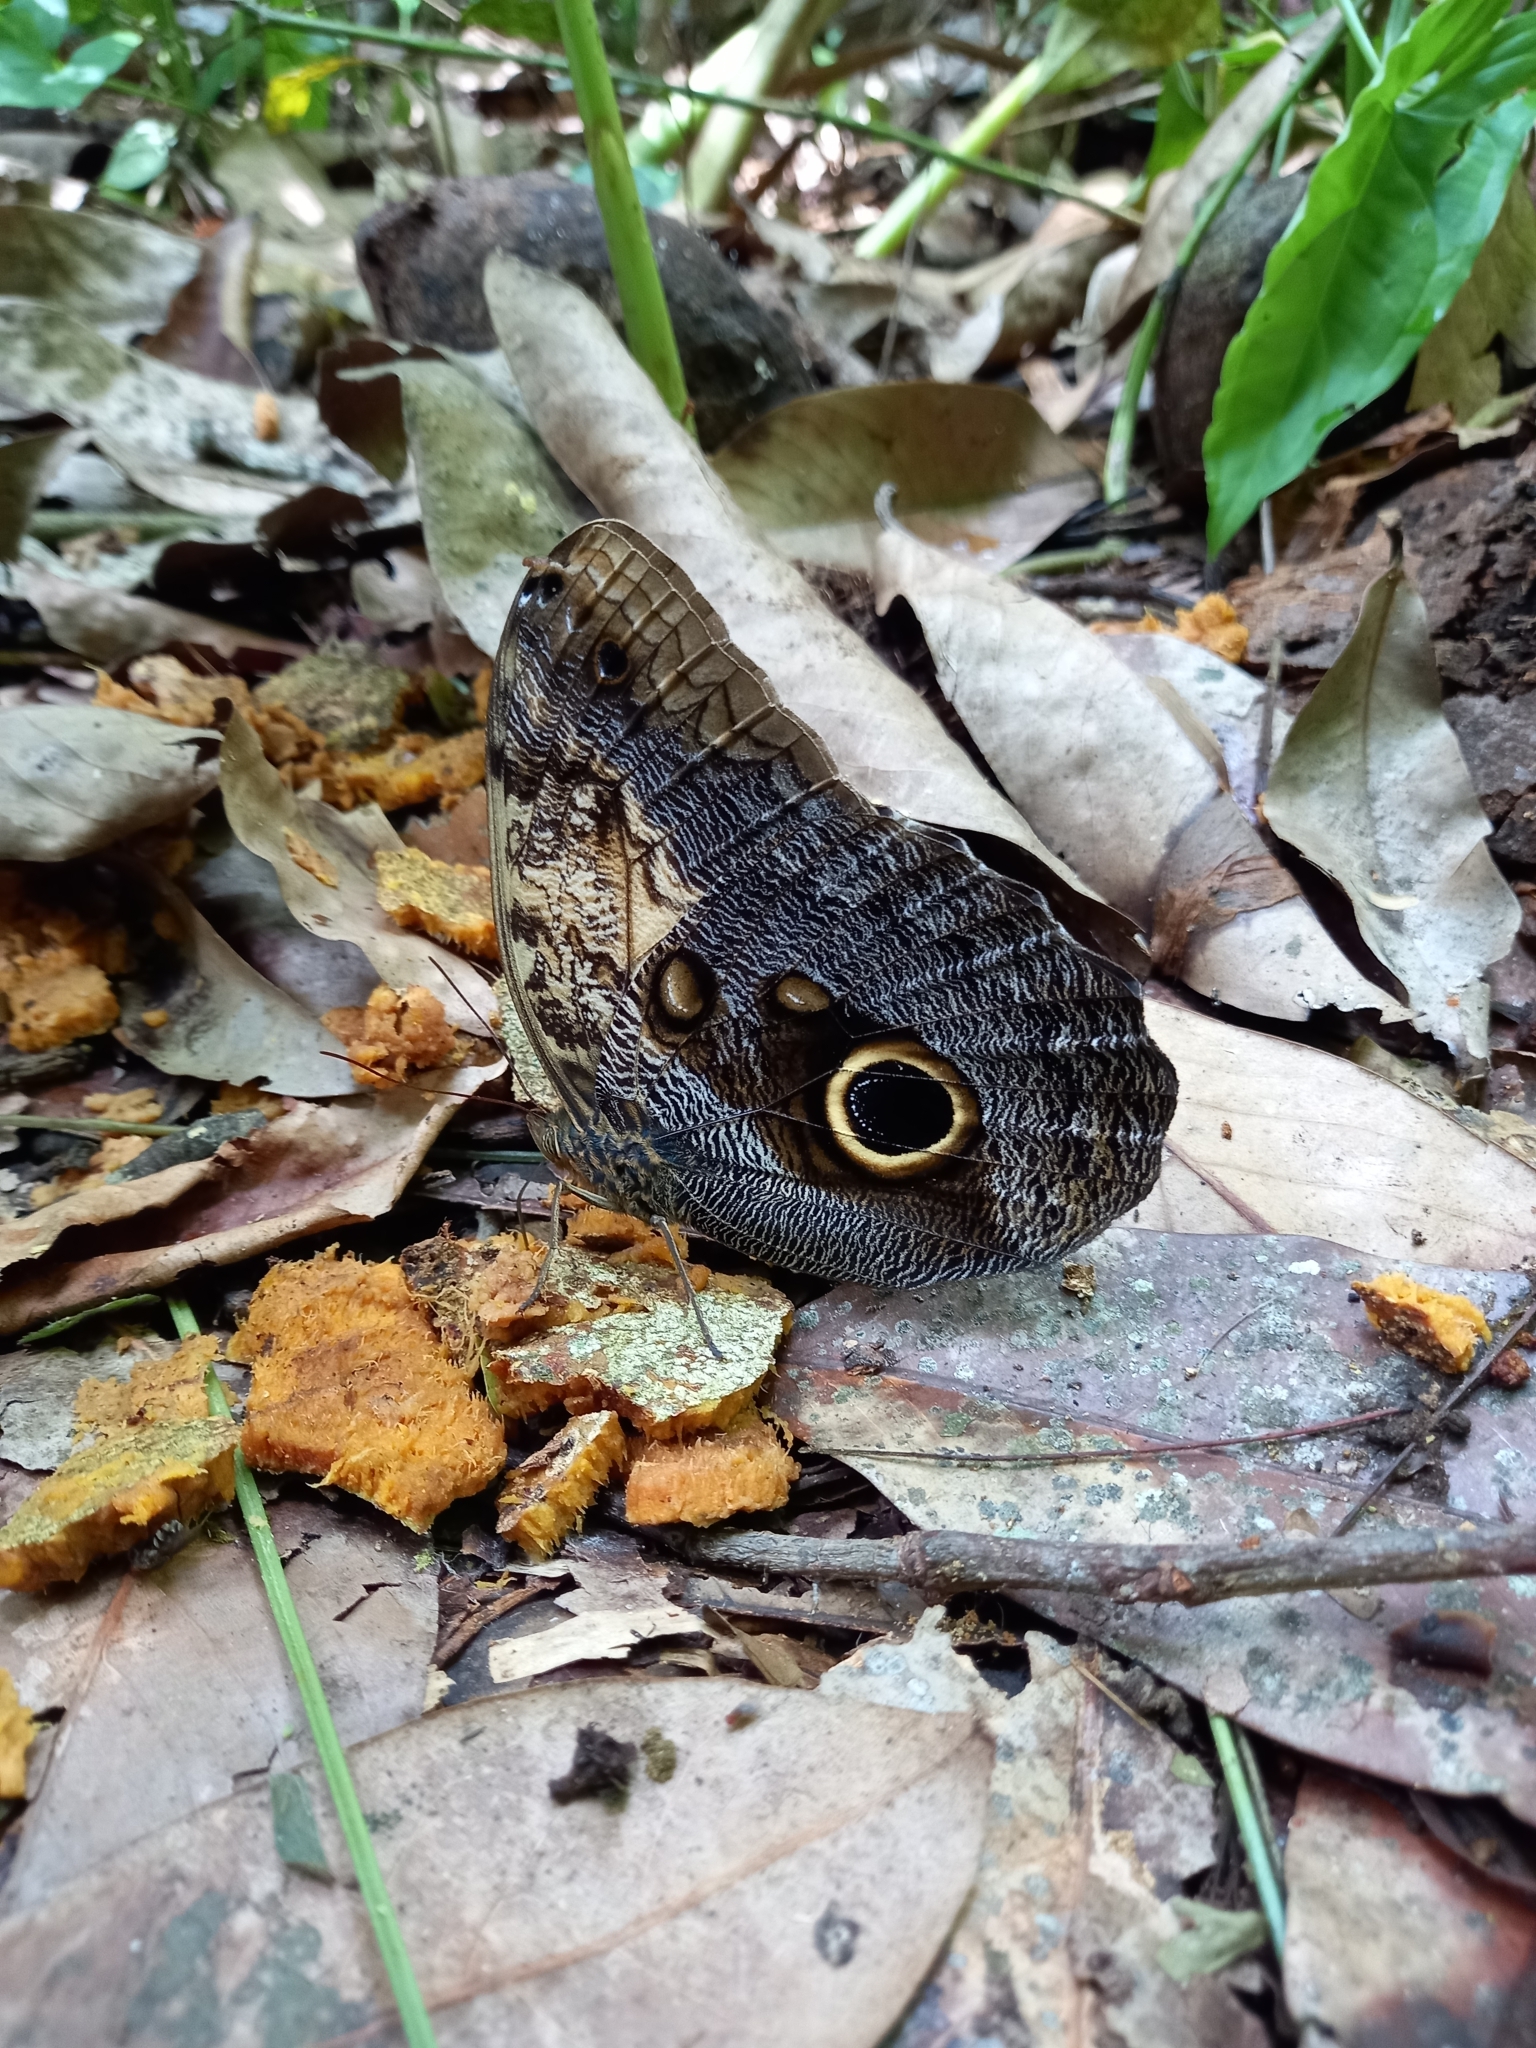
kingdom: Animalia
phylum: Arthropoda
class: Insecta
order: Lepidoptera
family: Nymphalidae
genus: Caligo
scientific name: Caligo telamonius
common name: Pale owl-butterfly
